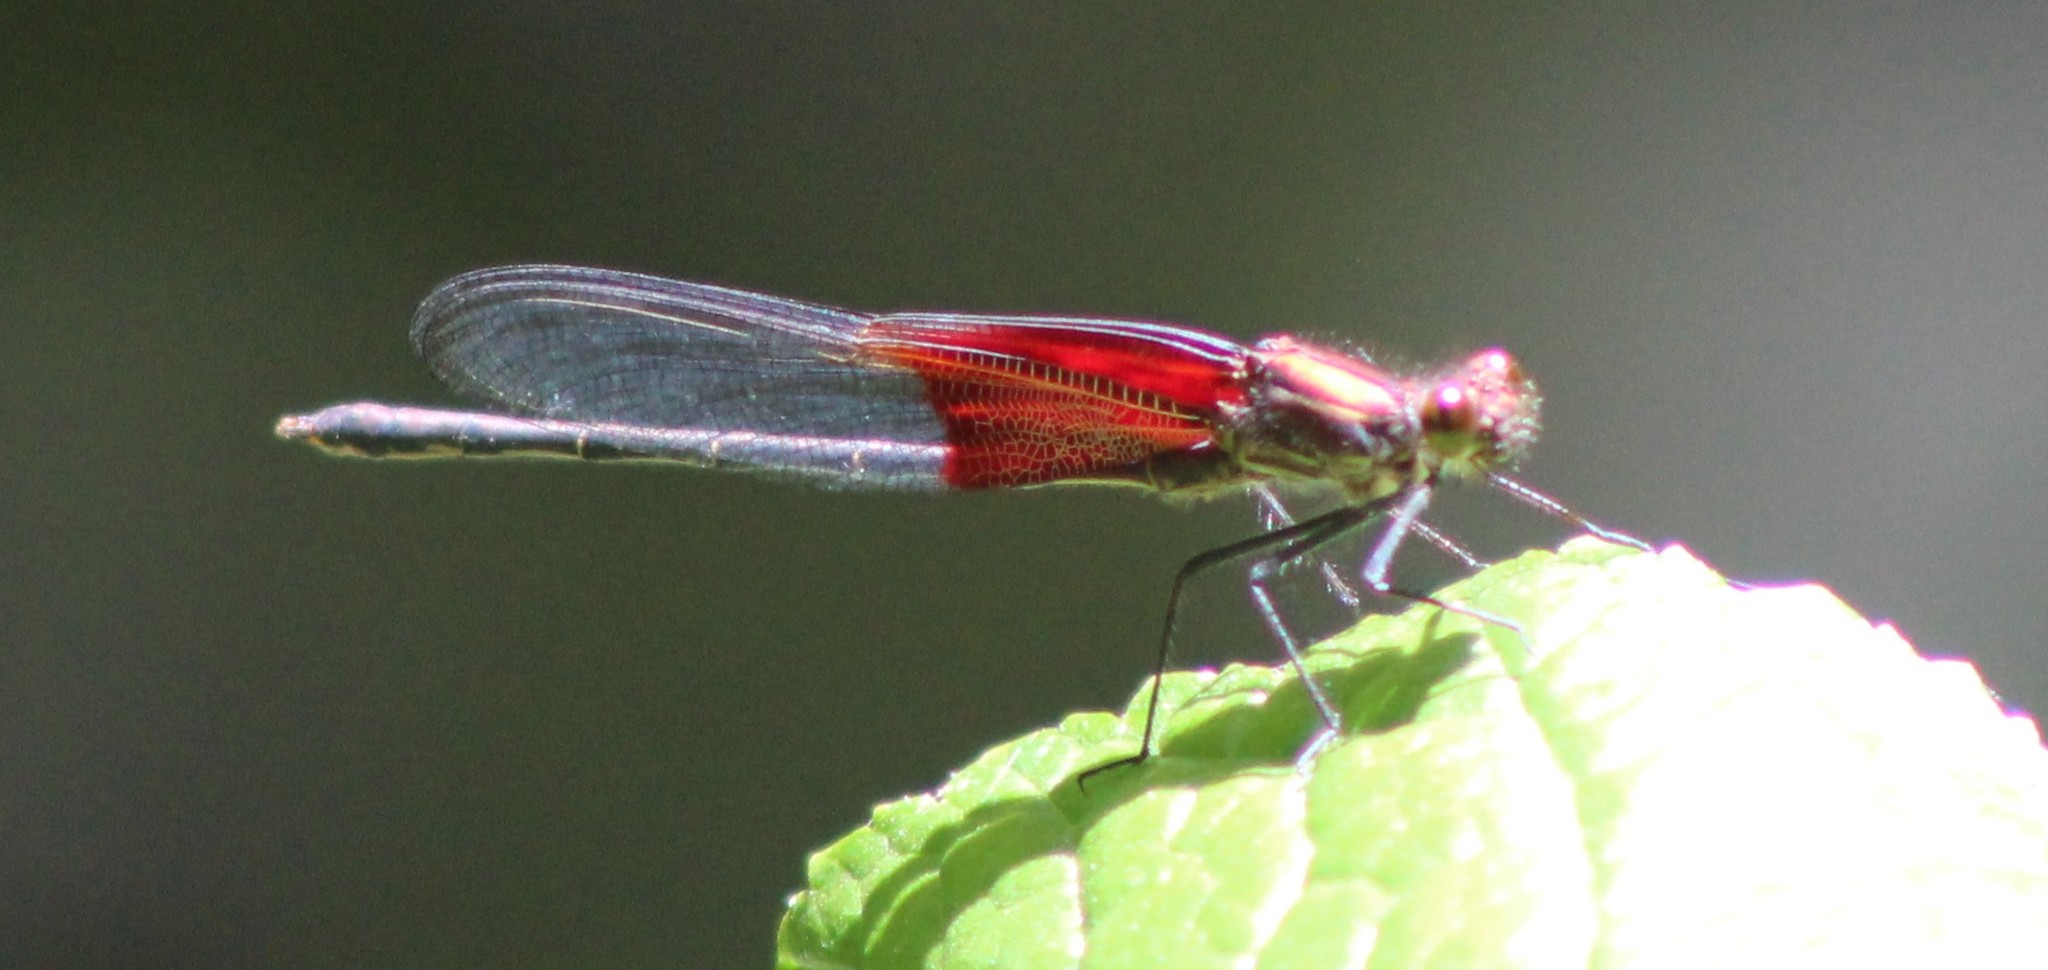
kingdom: Animalia
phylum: Arthropoda
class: Insecta
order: Odonata
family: Calopterygidae
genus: Hetaerina
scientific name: Hetaerina americana
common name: American rubyspot
